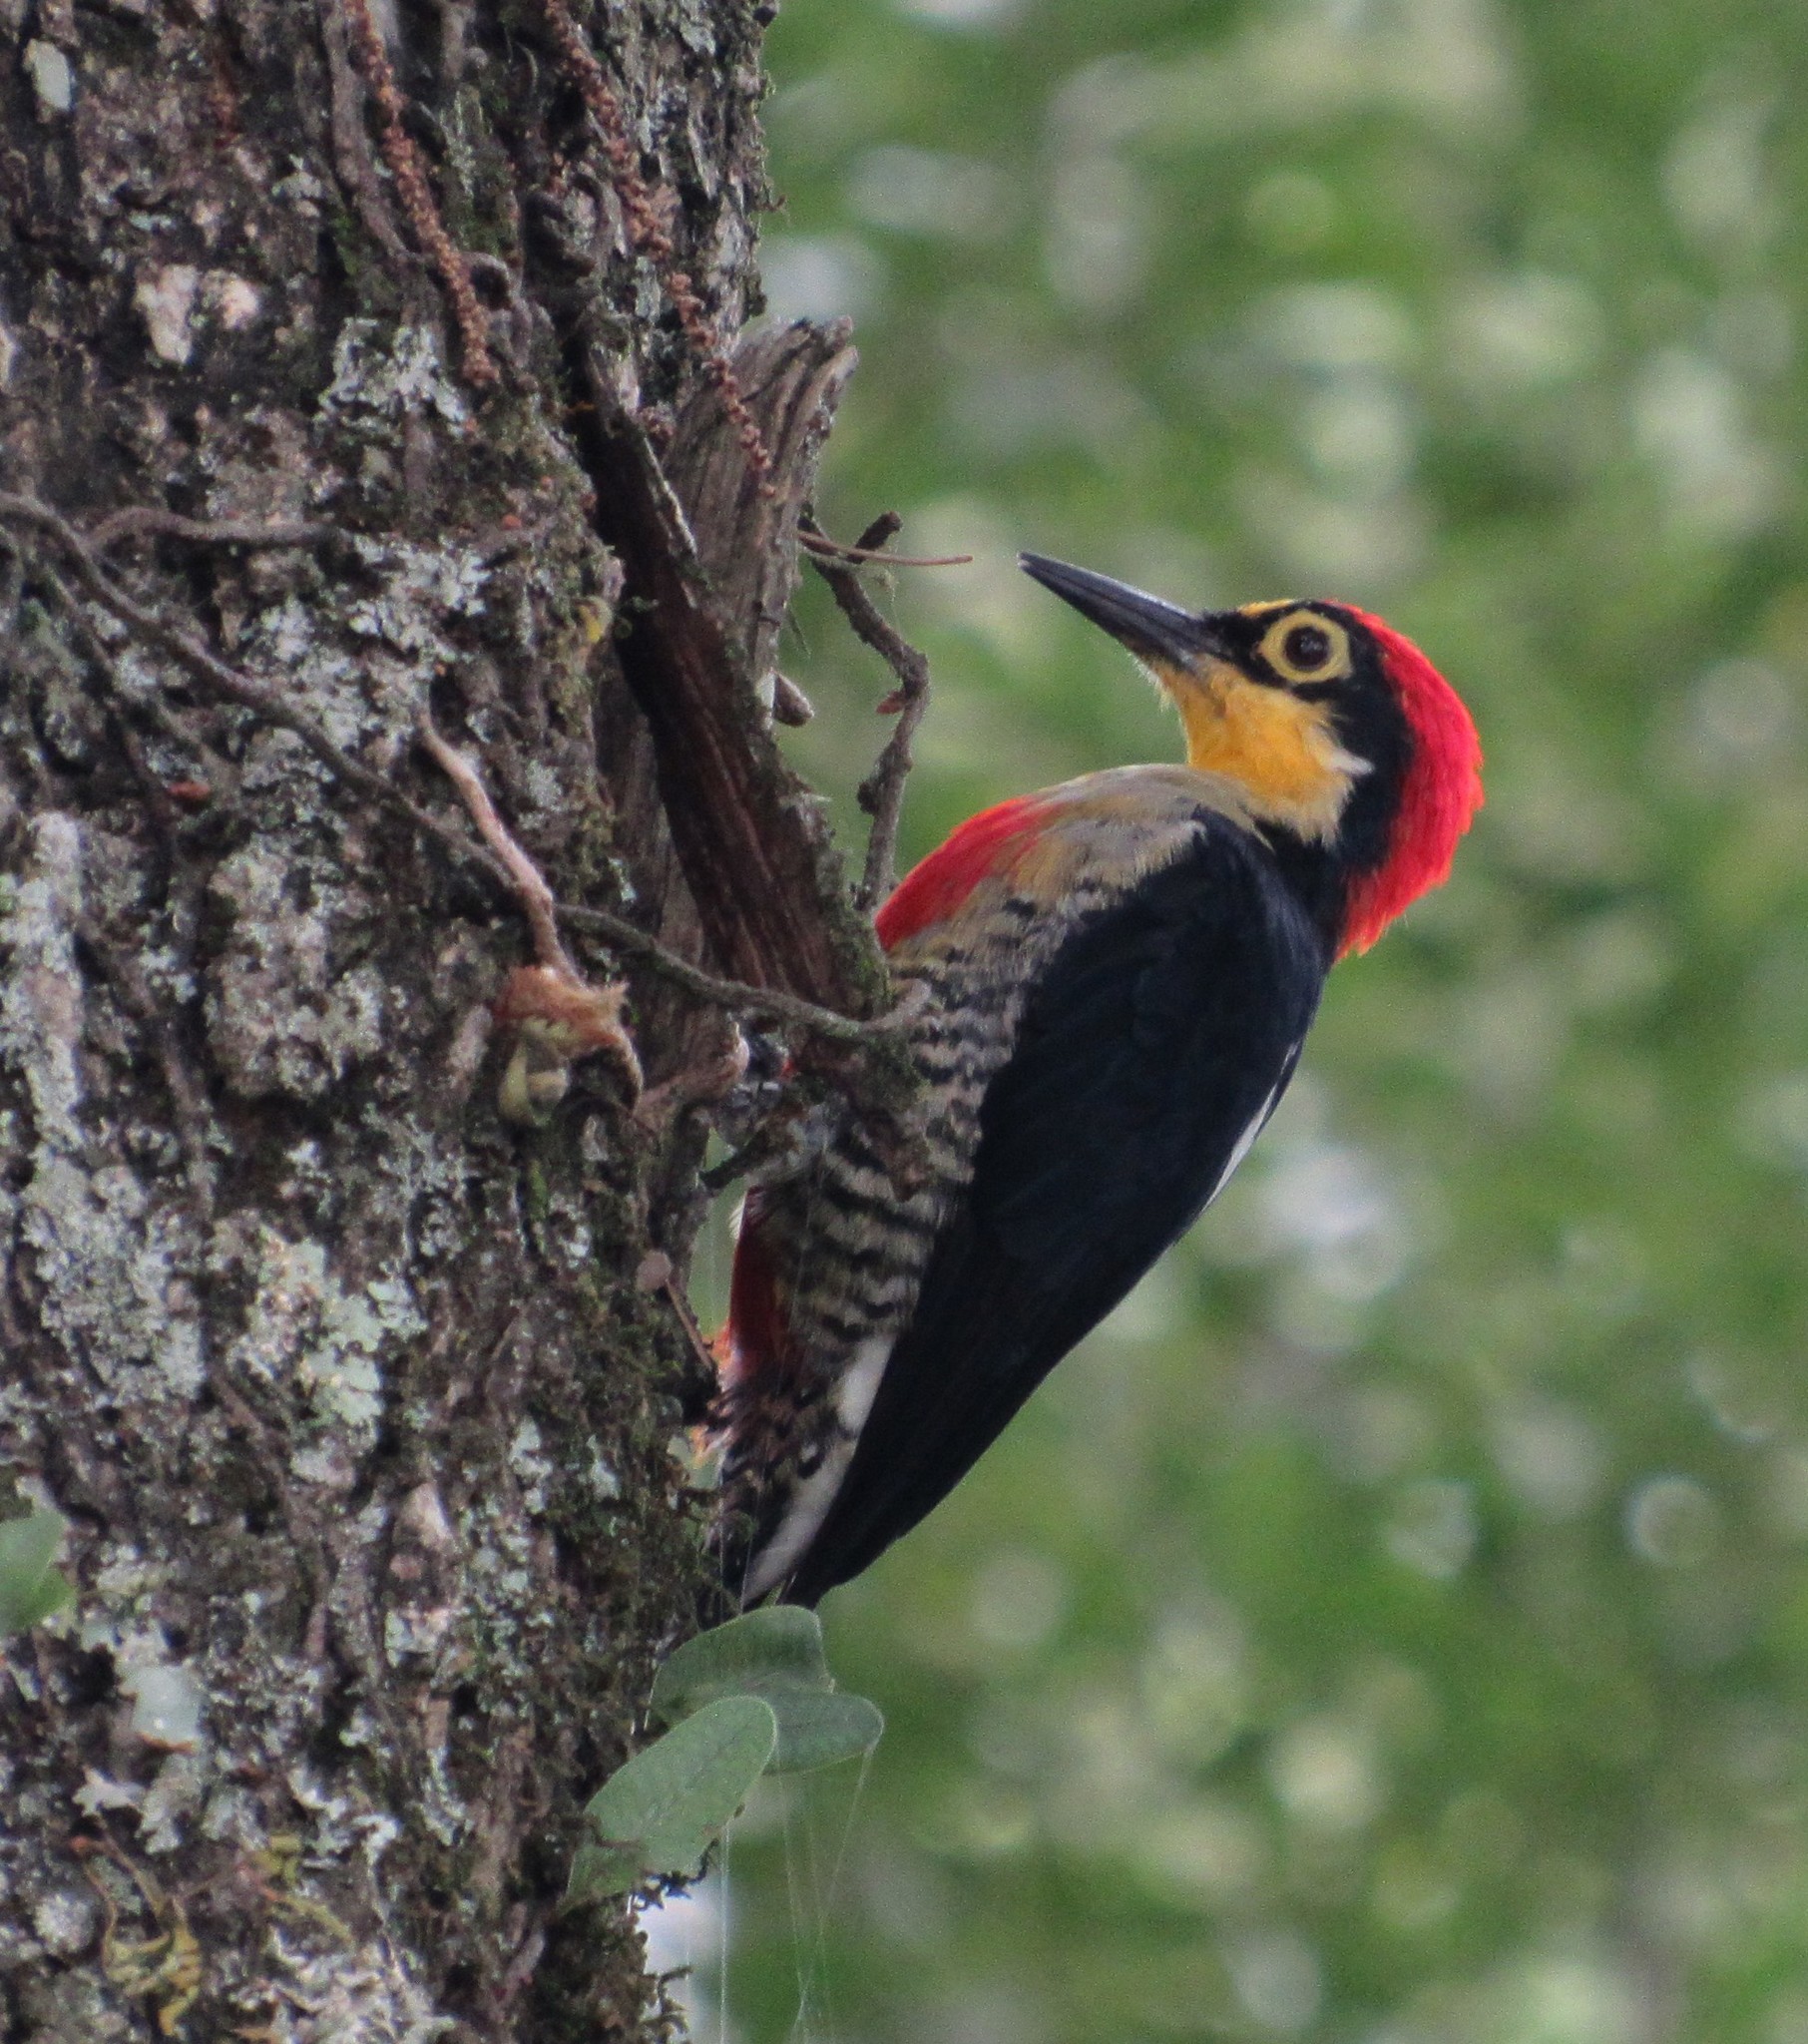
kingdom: Animalia
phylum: Chordata
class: Aves
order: Piciformes
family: Picidae
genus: Melanerpes
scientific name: Melanerpes flavifrons
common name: Yellow-fronted woodpecker
